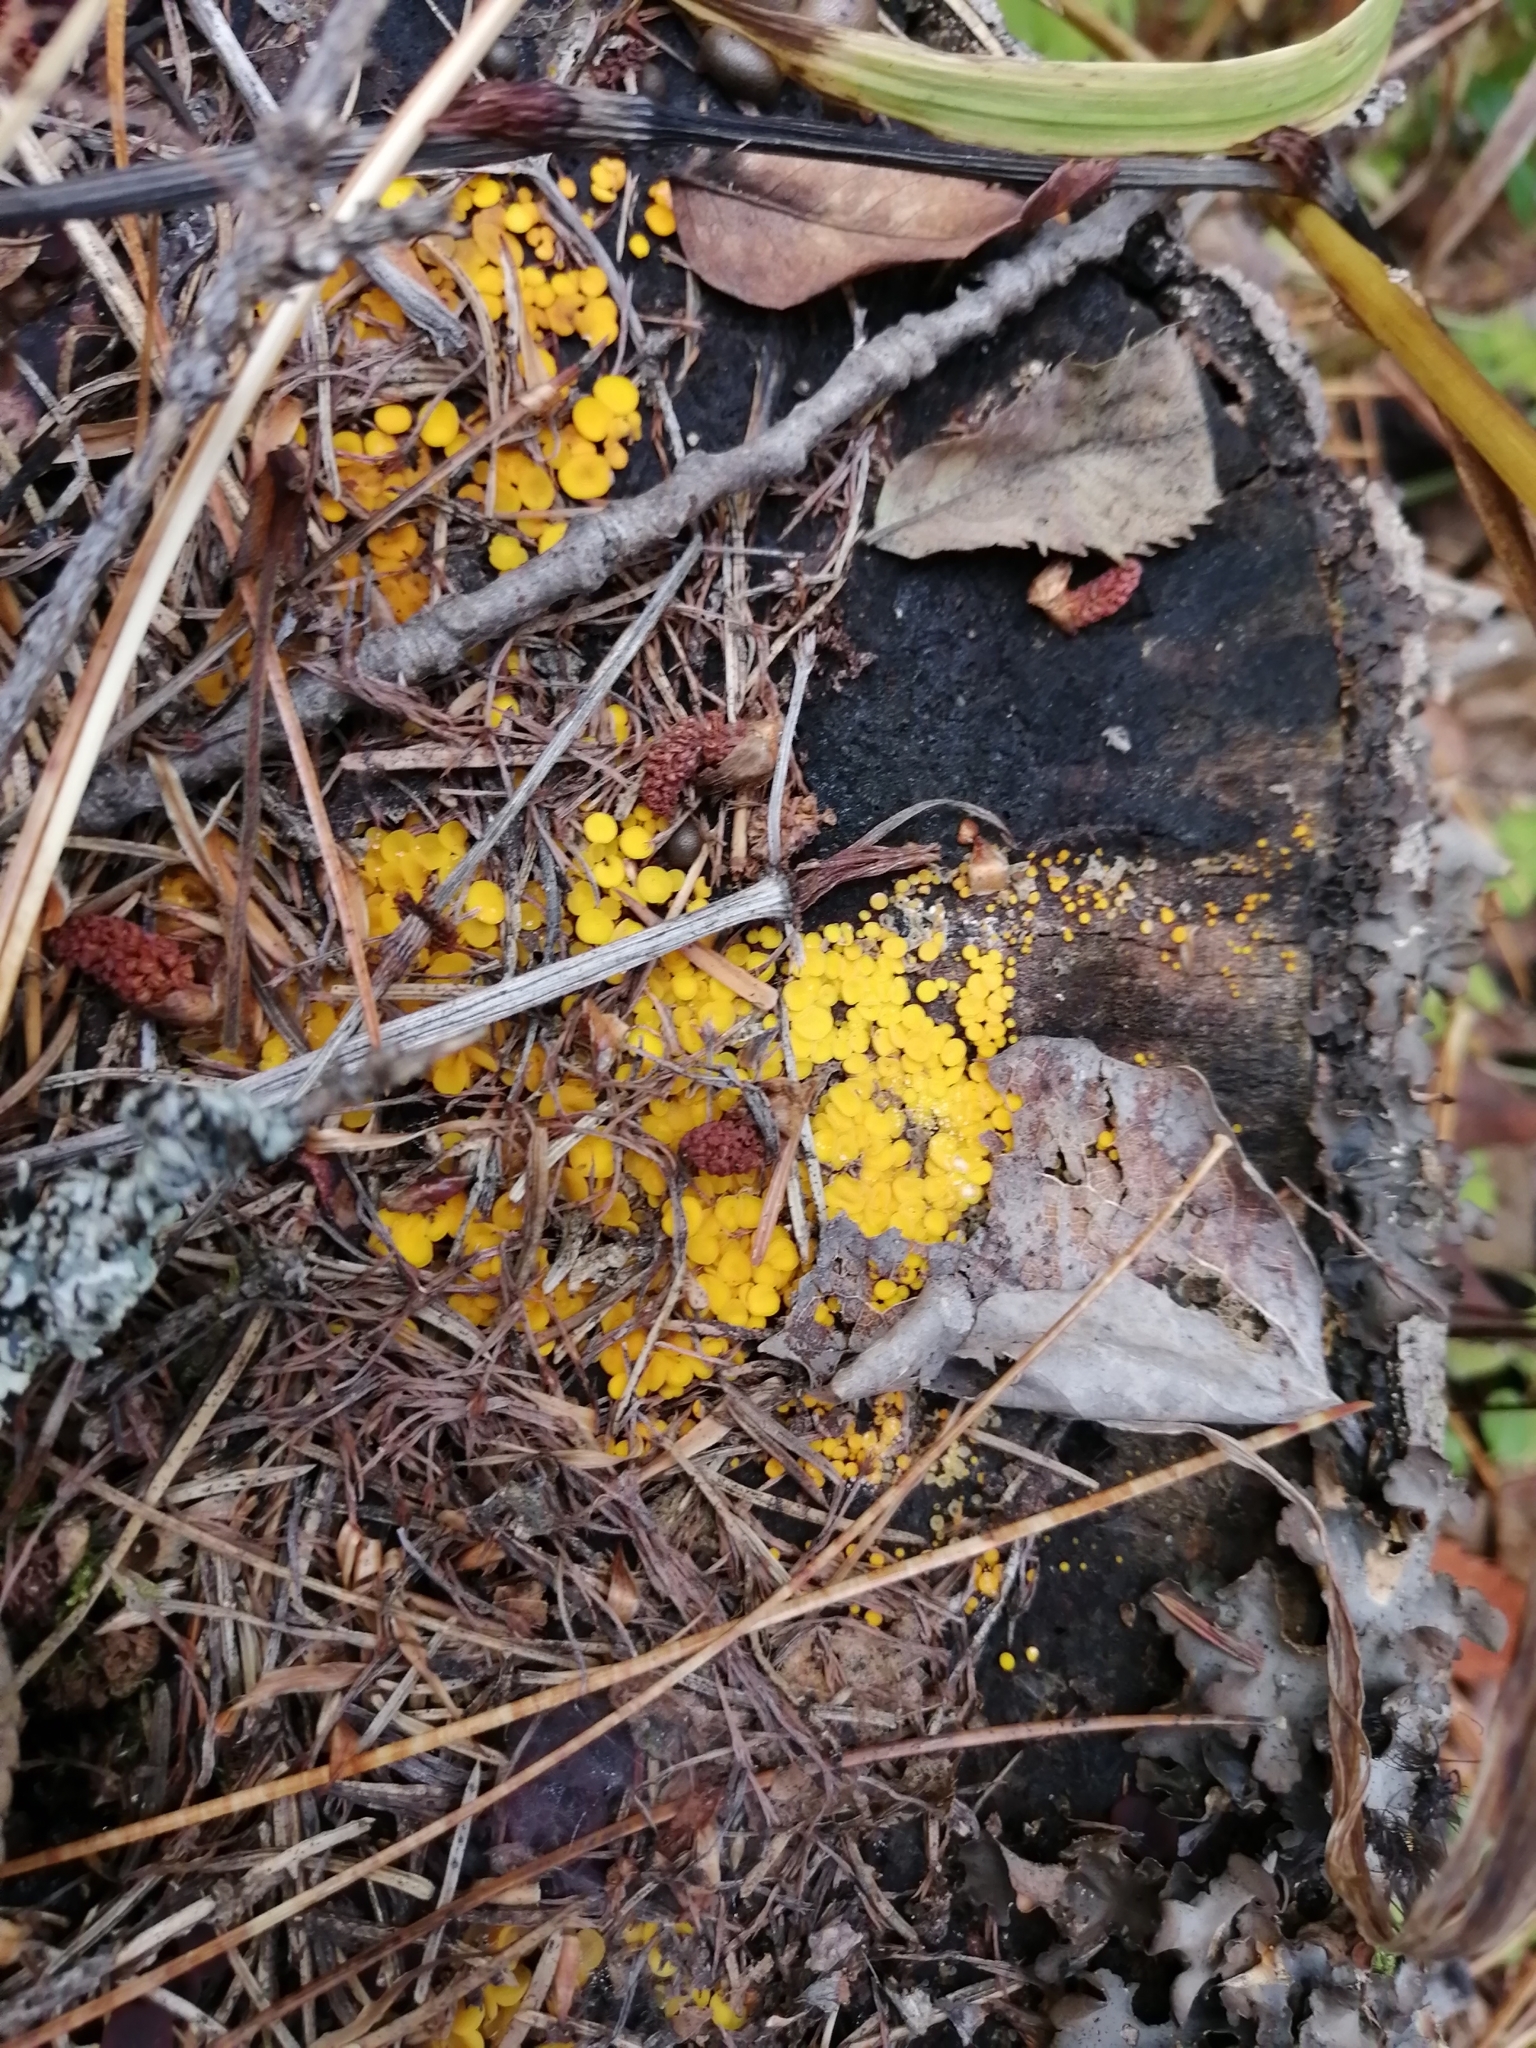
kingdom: Fungi
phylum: Ascomycota
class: Leotiomycetes
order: Helotiales
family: Pezizellaceae
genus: Calycina
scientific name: Calycina citrina
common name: Yellow fairy cups
